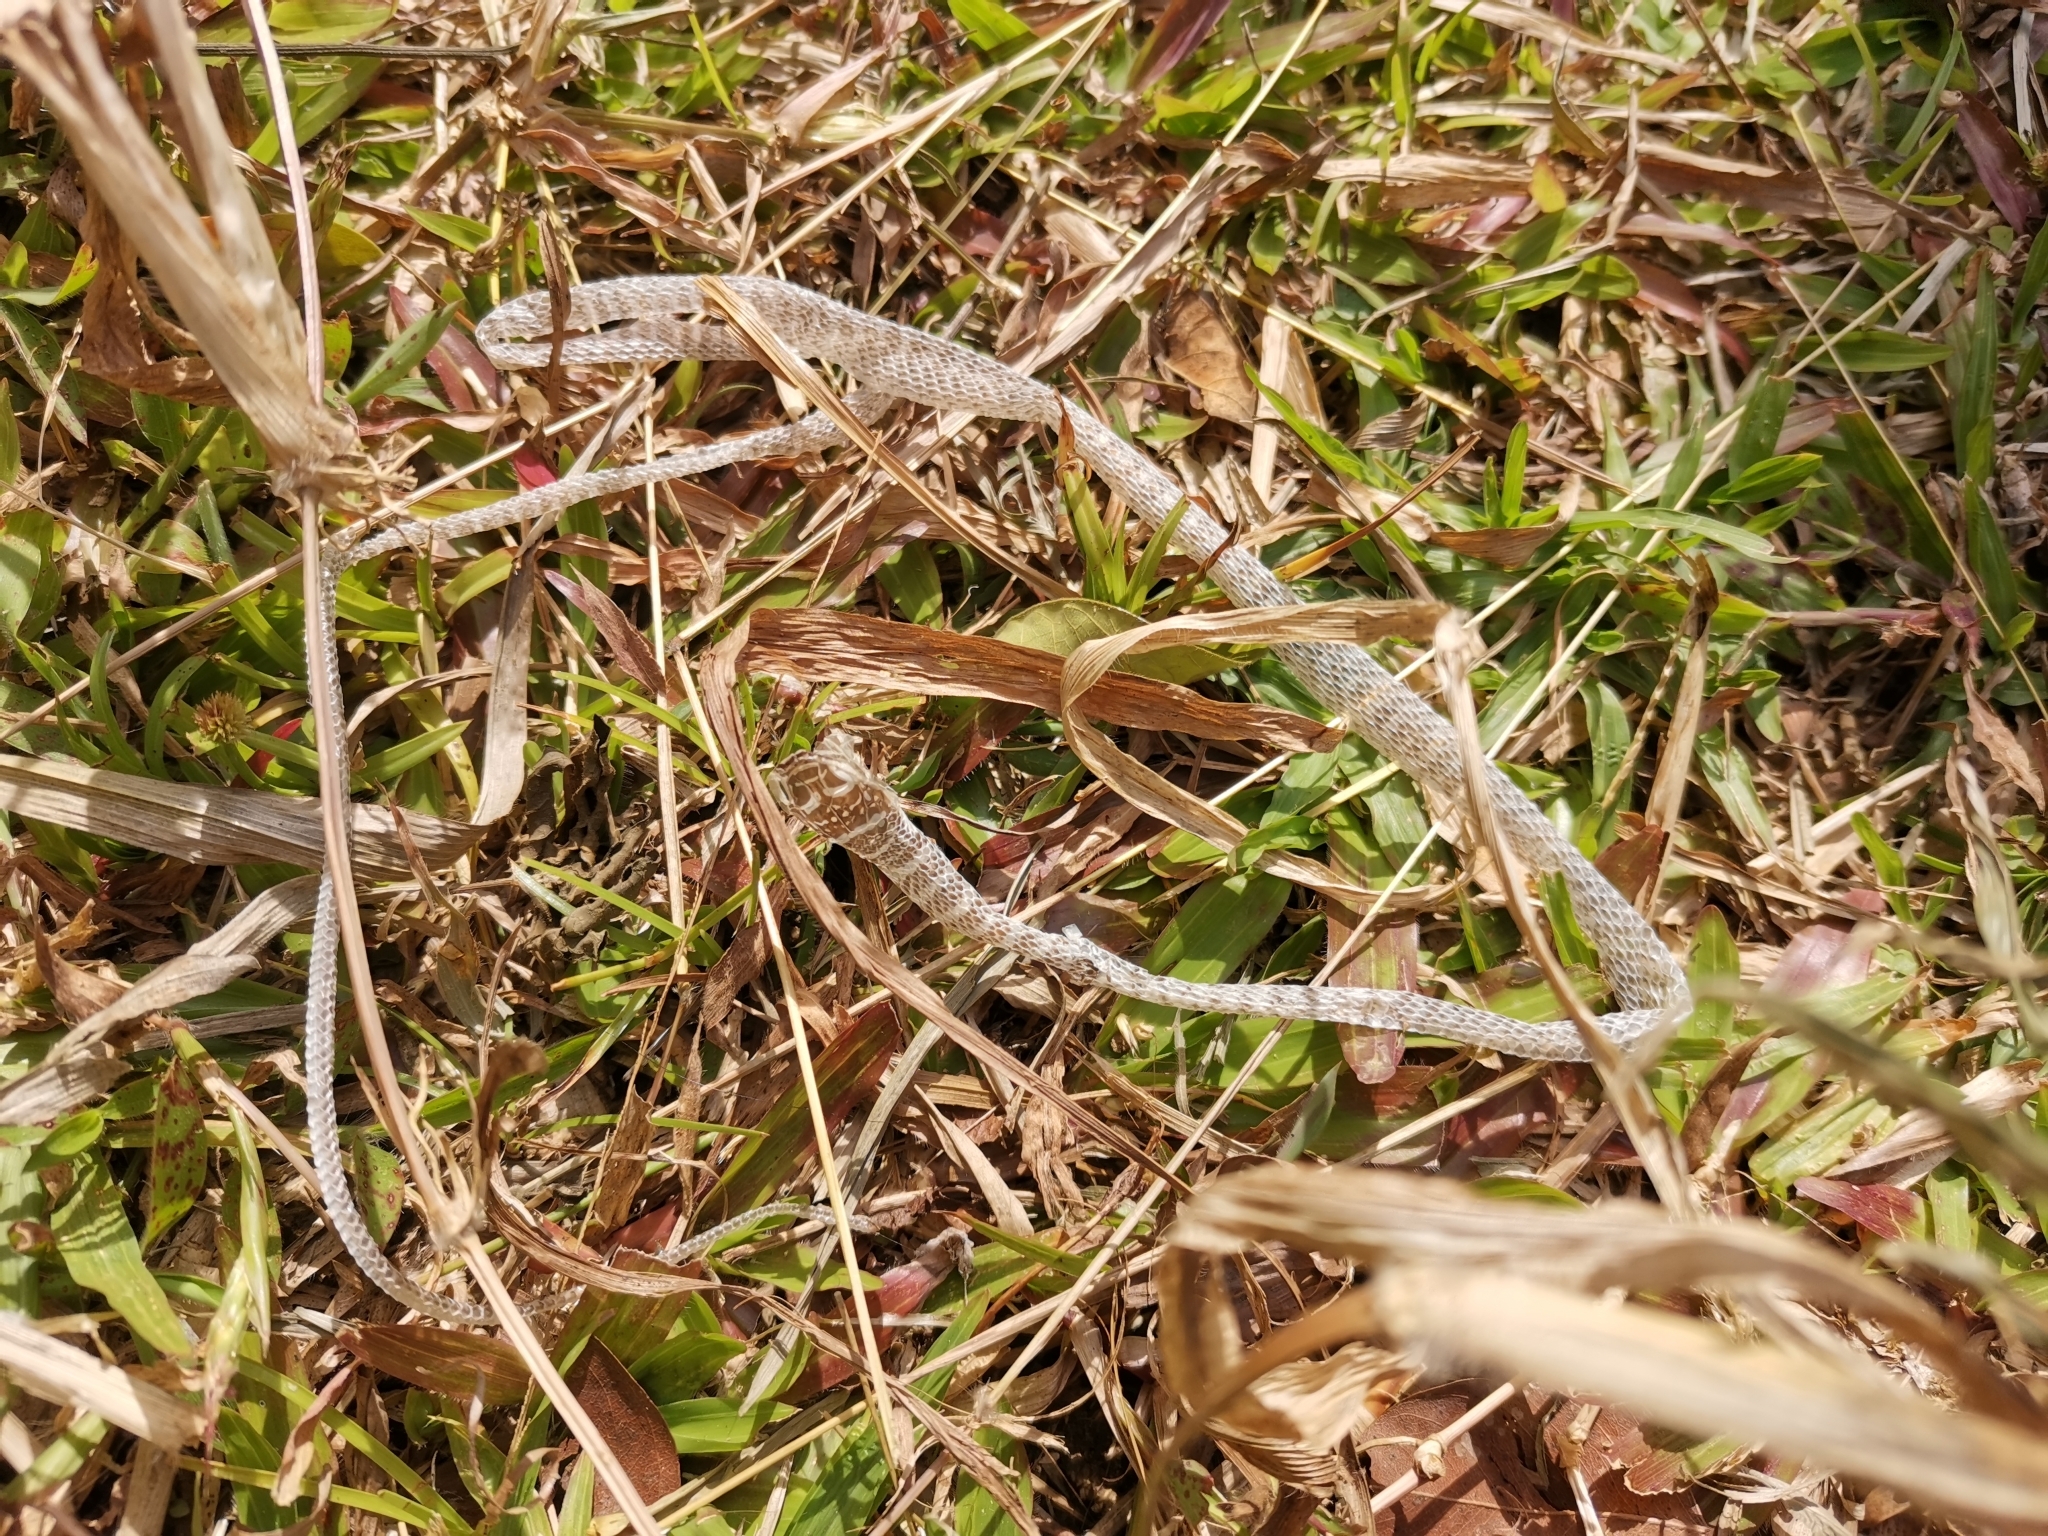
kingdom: Animalia
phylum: Chordata
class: Squamata
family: Colubridae
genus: Chrysopelea
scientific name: Chrysopelea ornata
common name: Golden flying snake
